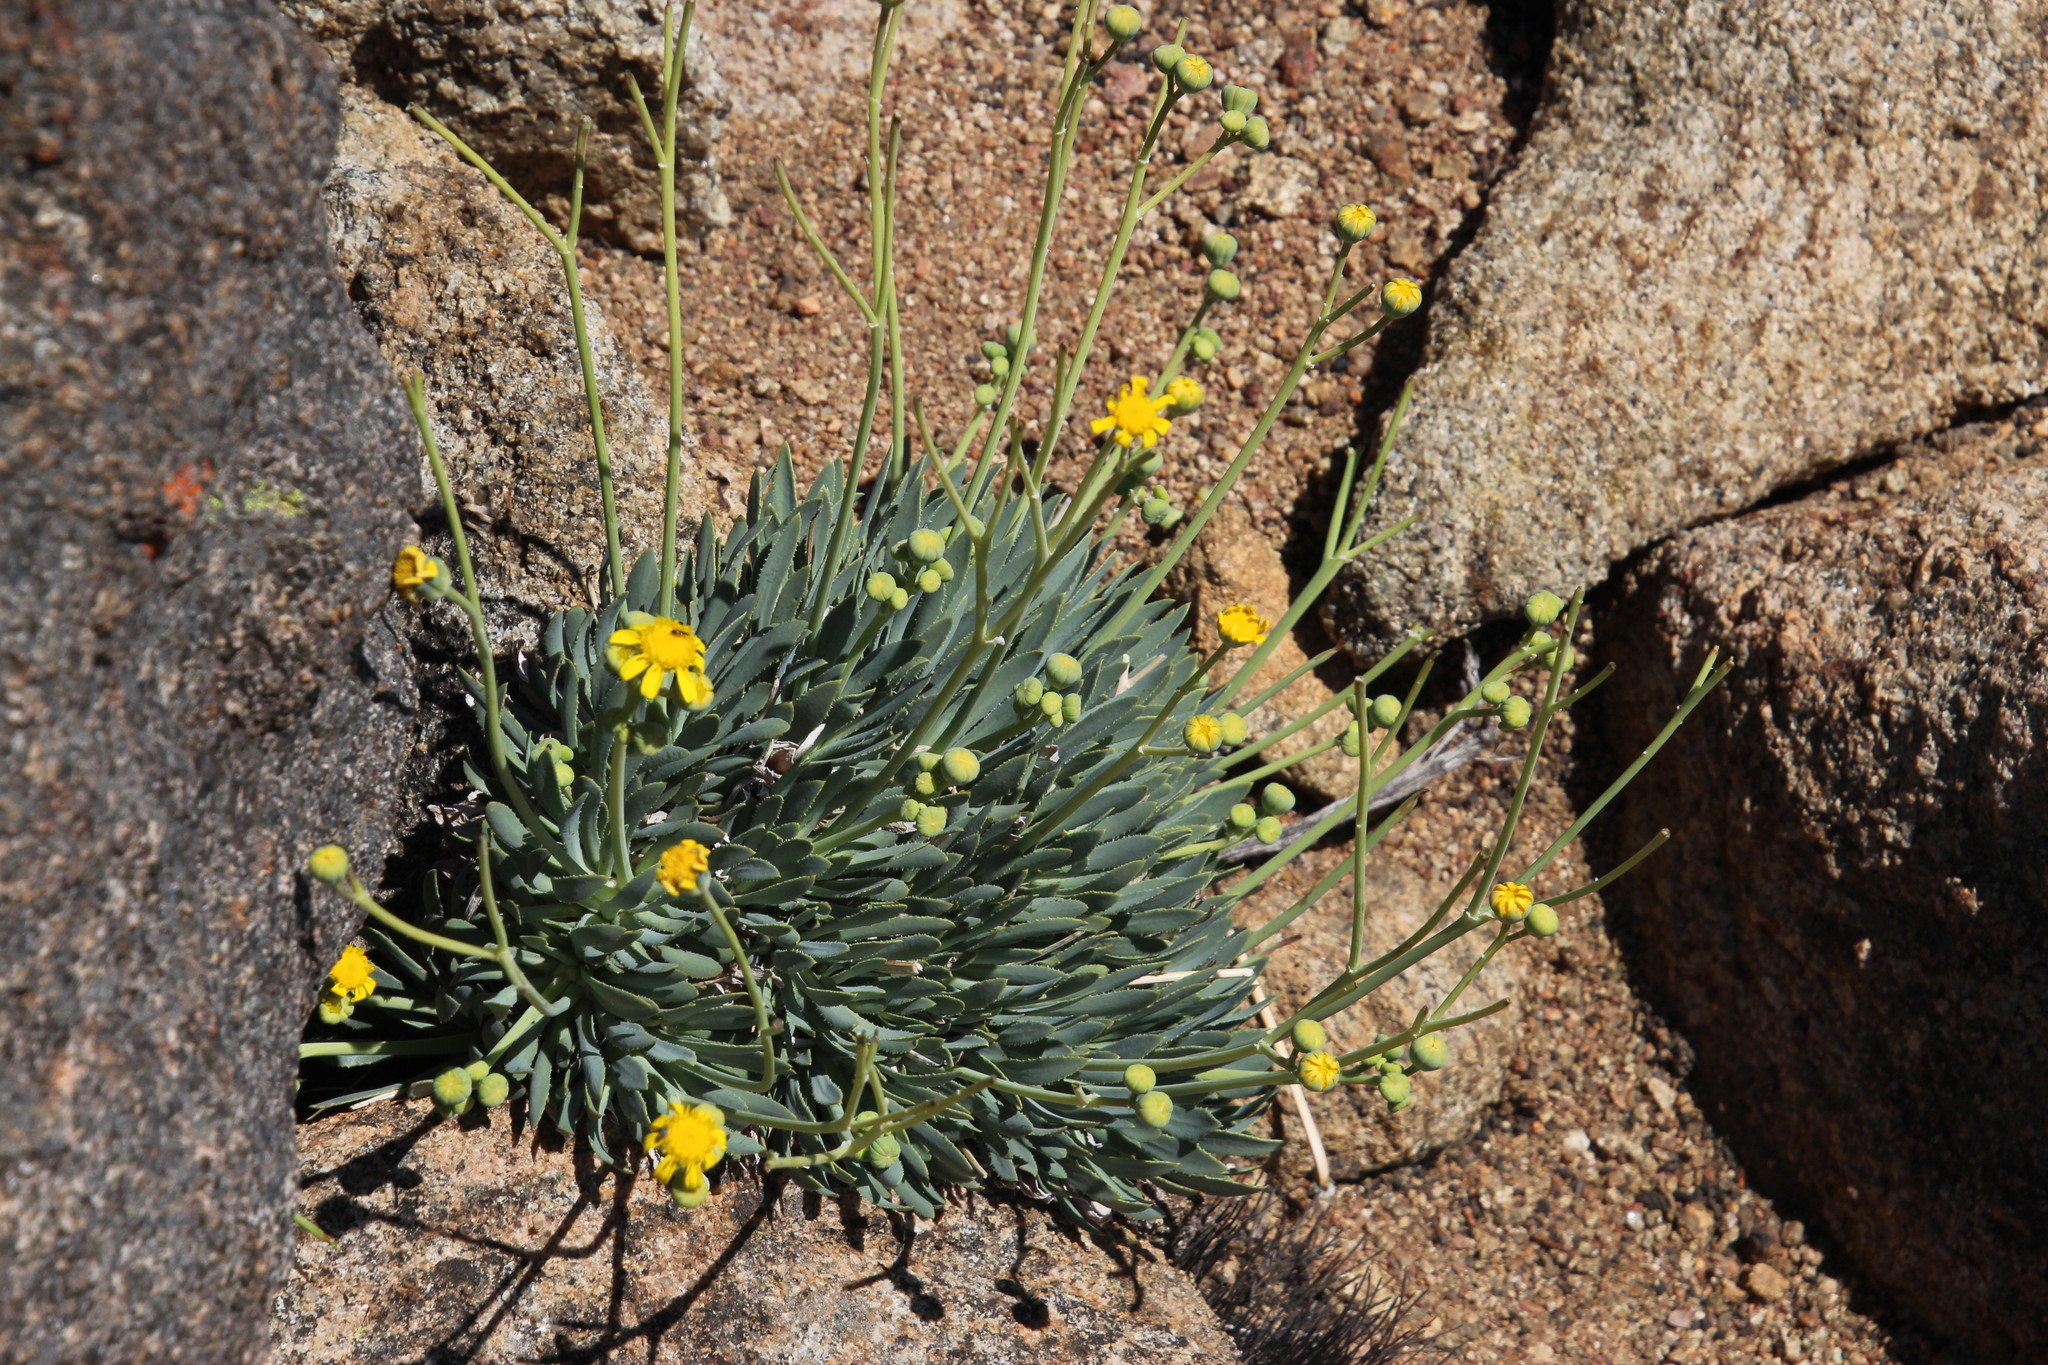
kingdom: Plantae
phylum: Tracheophyta
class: Magnoliopsida
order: Asterales
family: Asteraceae
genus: Othonna
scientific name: Othonna retrorsa
